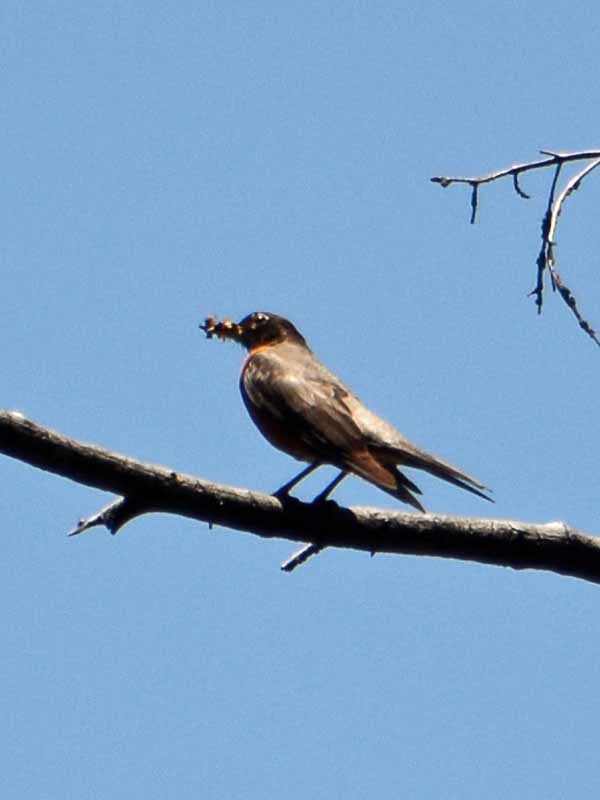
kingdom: Animalia
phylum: Chordata
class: Aves
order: Passeriformes
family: Turdidae
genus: Turdus
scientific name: Turdus migratorius
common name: American robin
